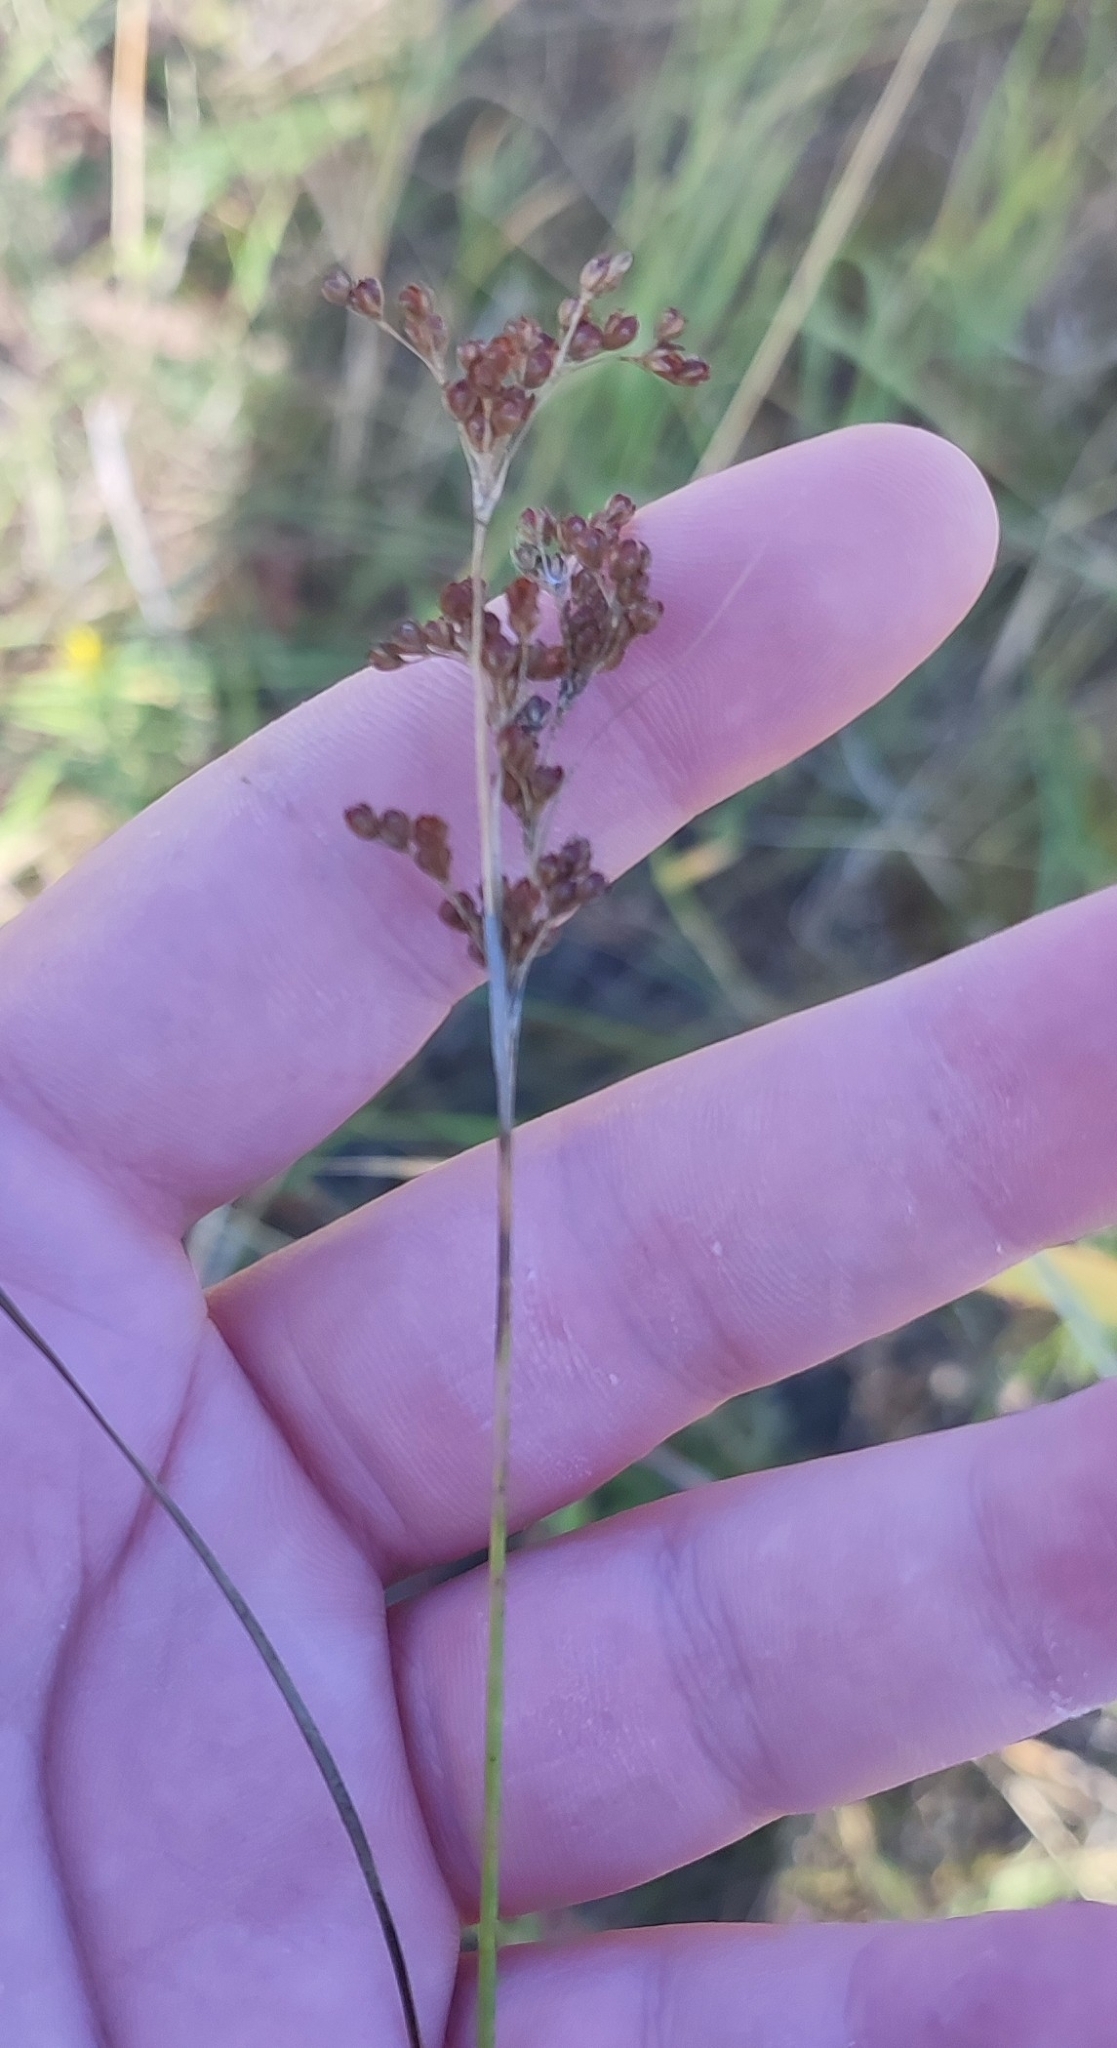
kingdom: Plantae
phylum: Tracheophyta
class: Liliopsida
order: Poales
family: Juncaceae
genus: Juncus
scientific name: Juncus compressus
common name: Round-fruited rush
